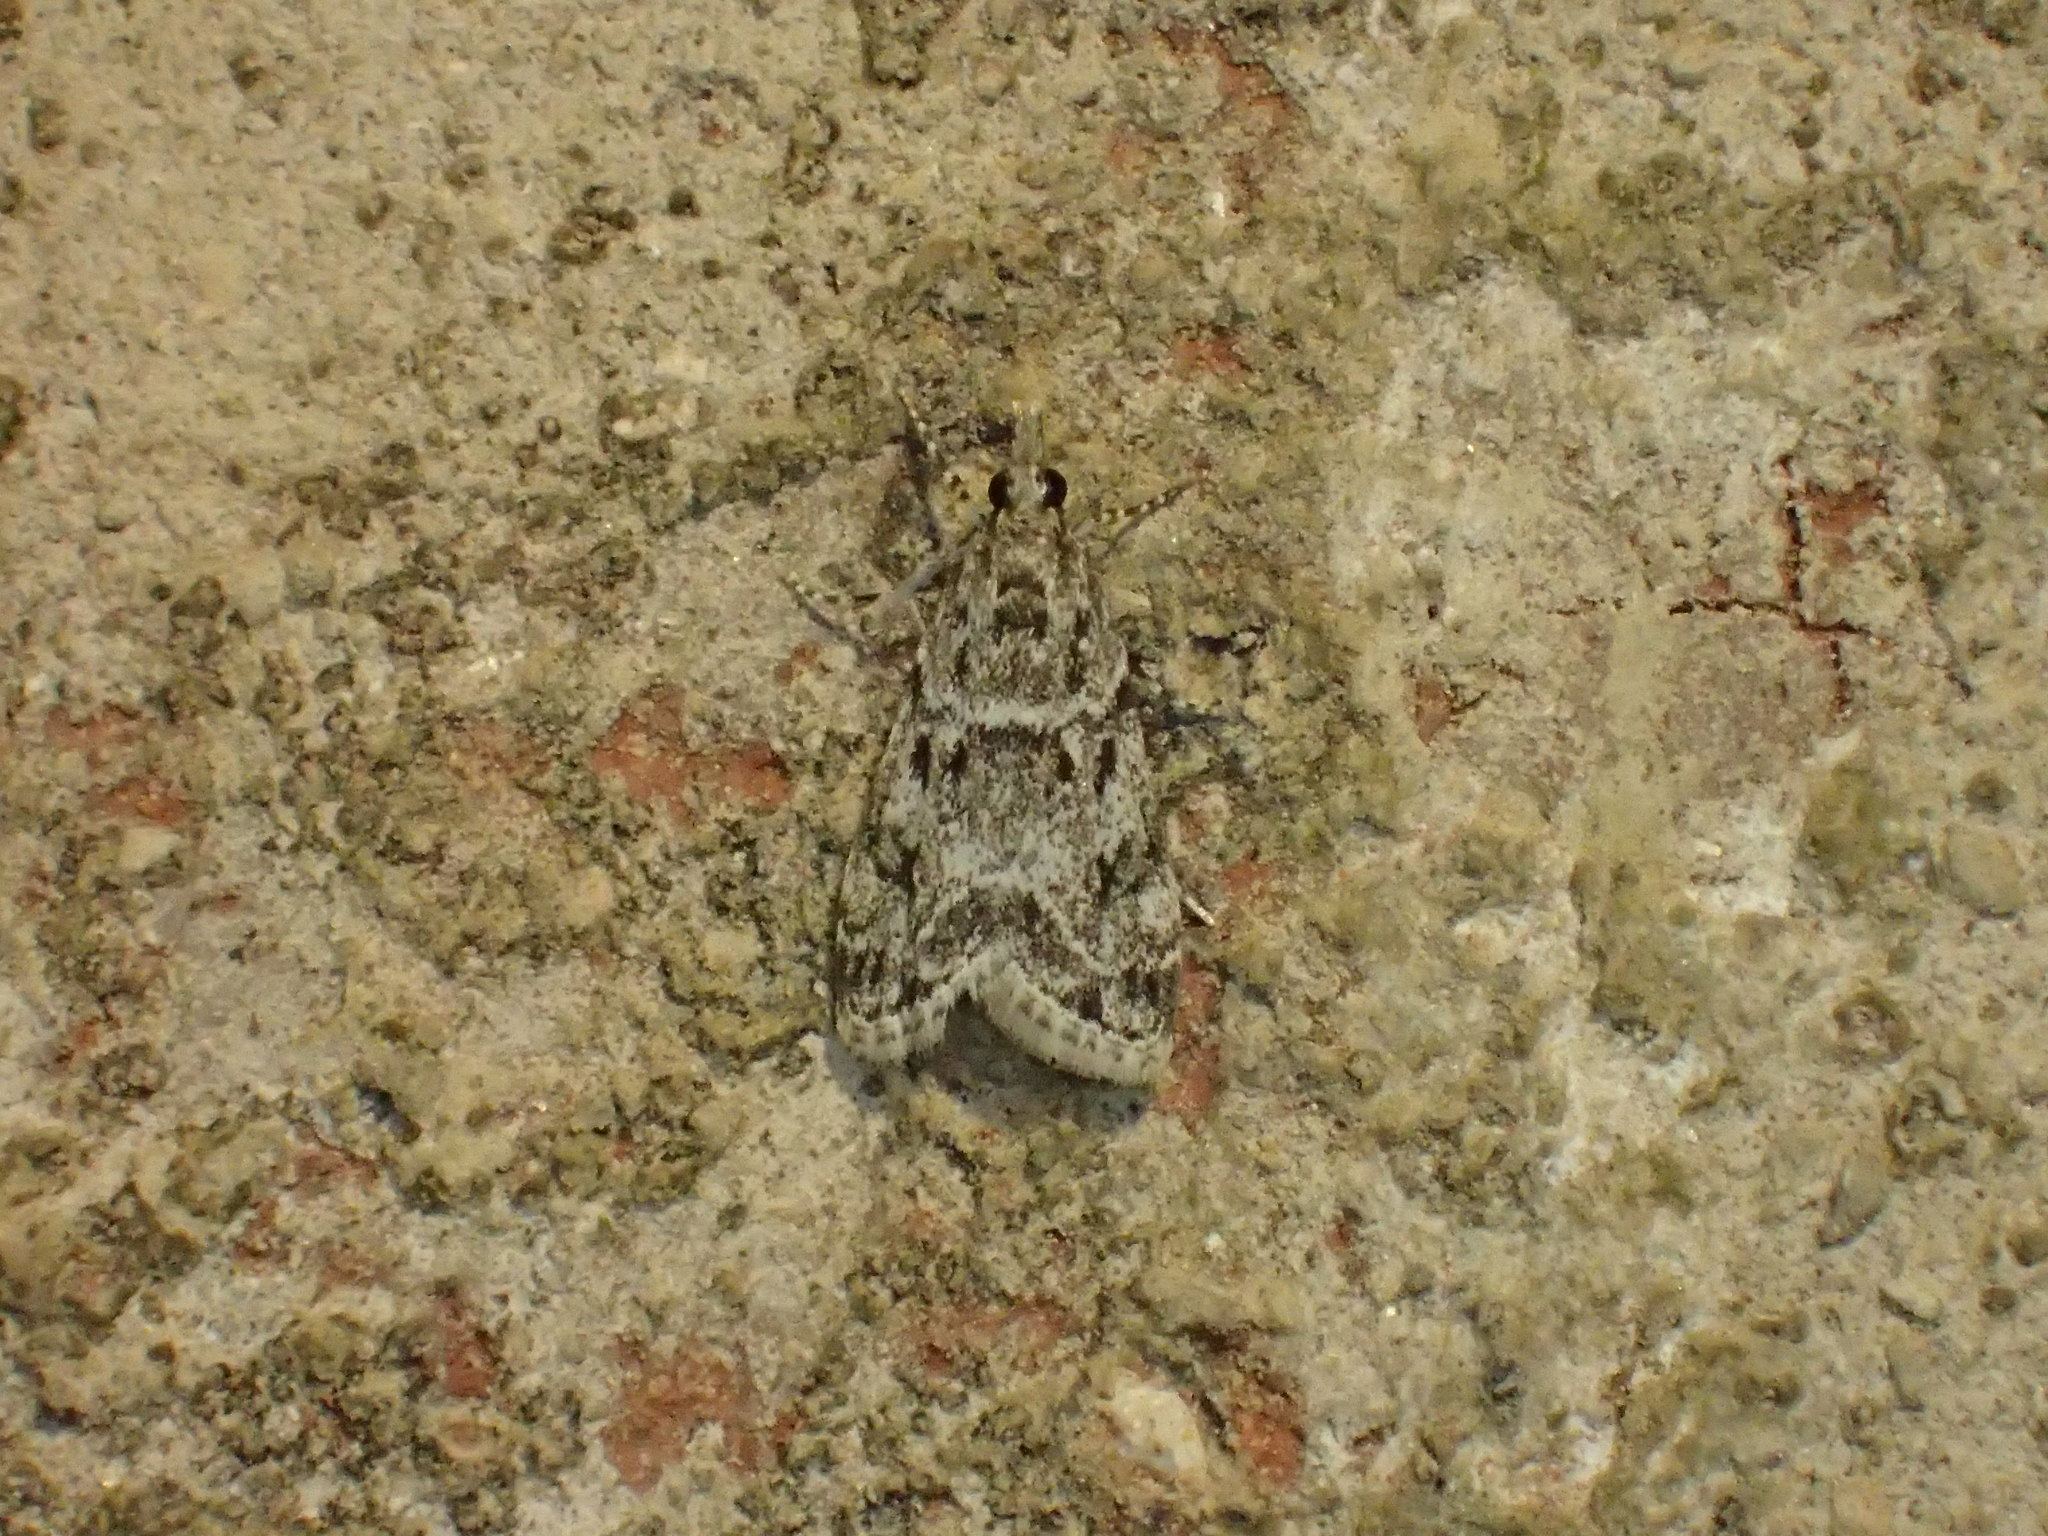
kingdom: Animalia
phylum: Arthropoda
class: Insecta
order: Lepidoptera
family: Crambidae
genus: Eudonia
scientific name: Eudonia heterosalis
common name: Mcdunnough's eudonia
